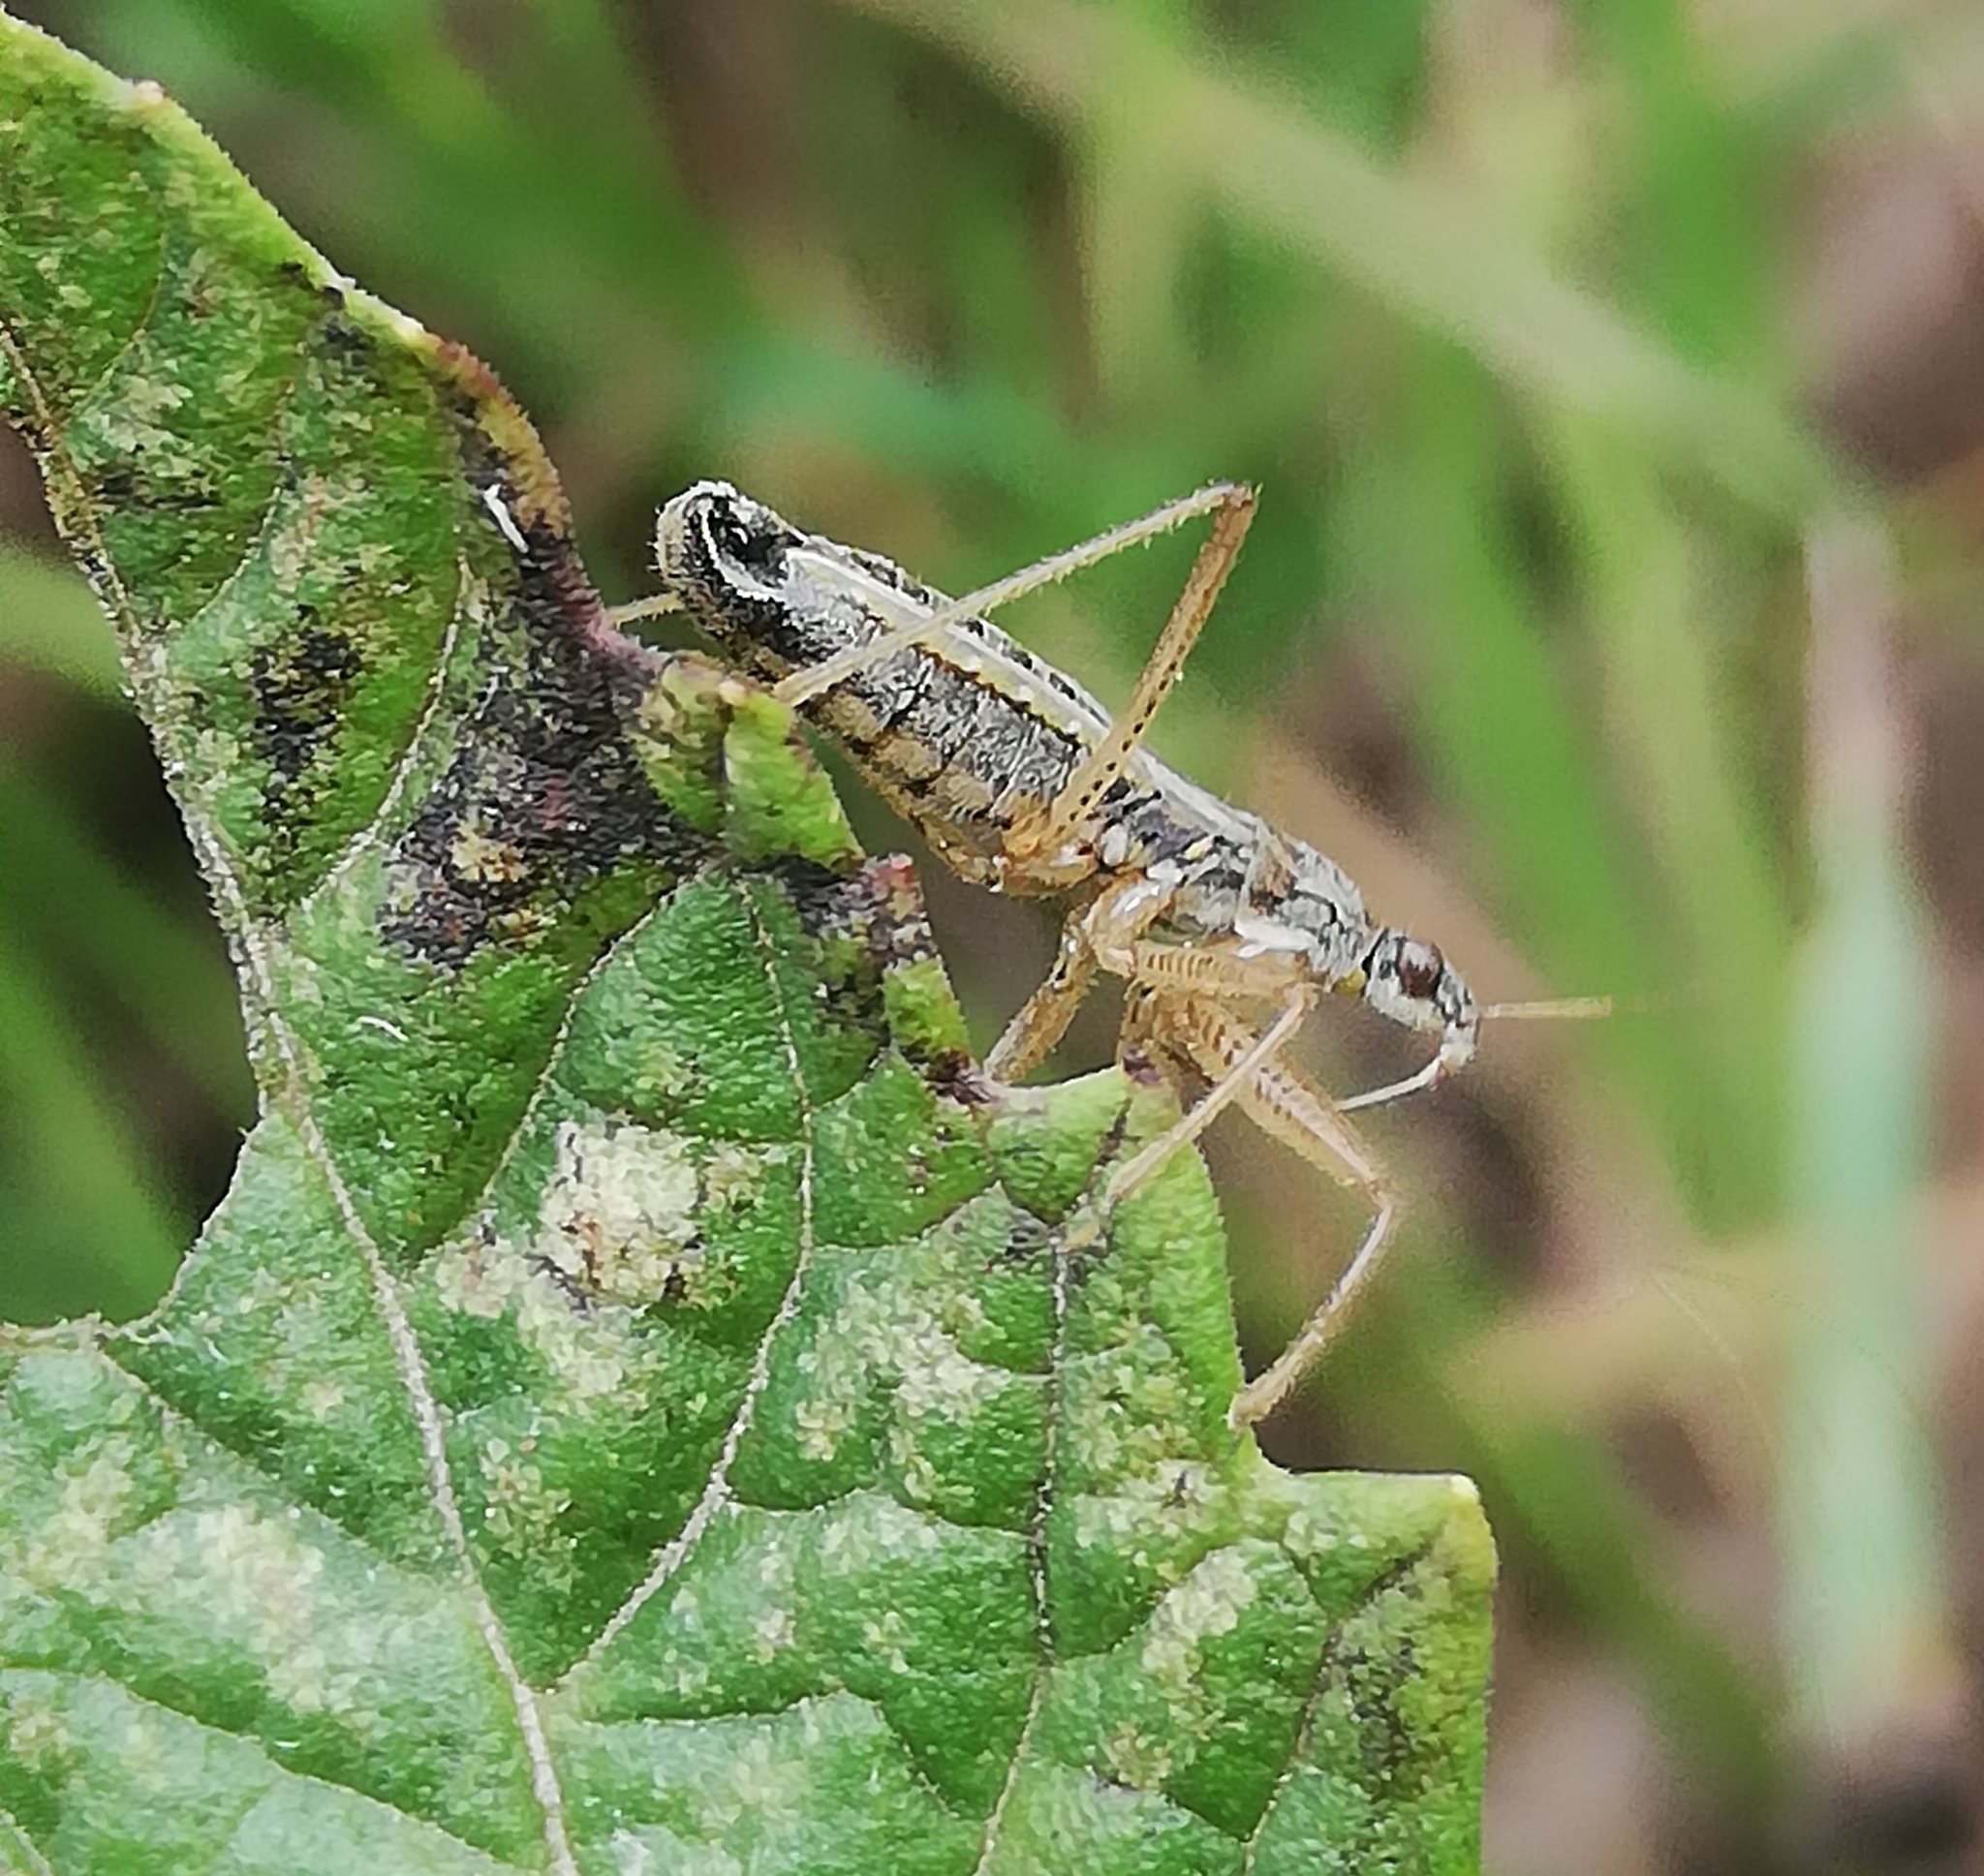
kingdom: Animalia
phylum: Arthropoda
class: Insecta
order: Hemiptera
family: Nabidae
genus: Nabis
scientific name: Nabis flavomarginatus
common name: Broad damselbug
